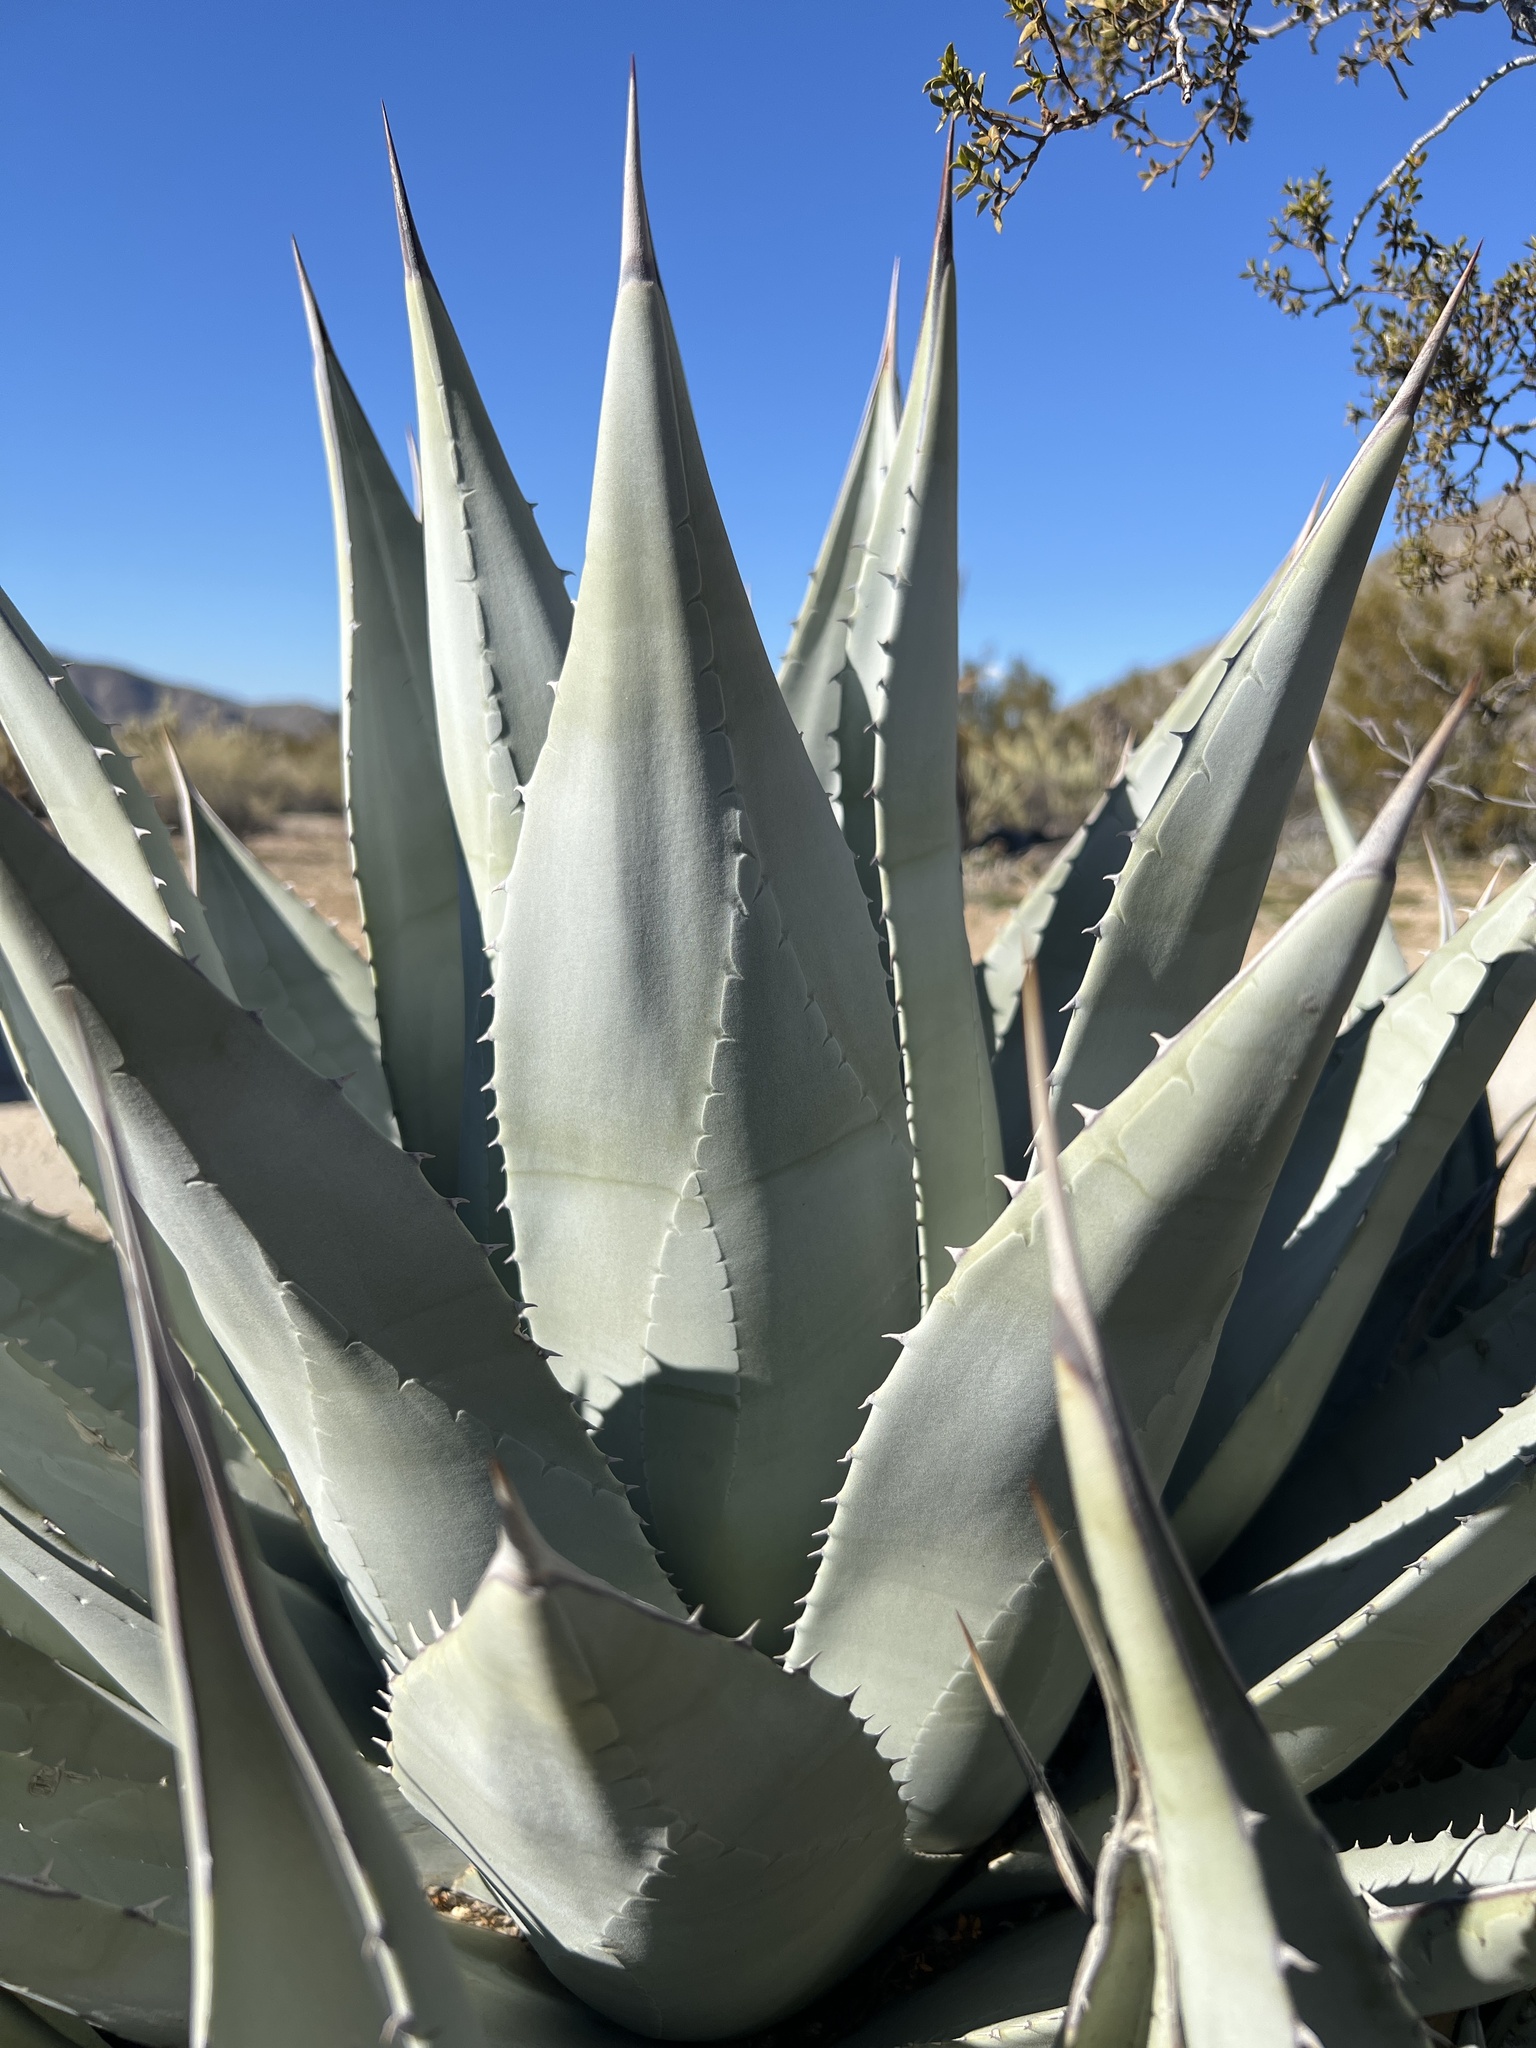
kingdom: Plantae
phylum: Tracheophyta
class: Liliopsida
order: Asparagales
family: Asparagaceae
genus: Agave
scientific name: Agave deserti
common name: Desert agave
